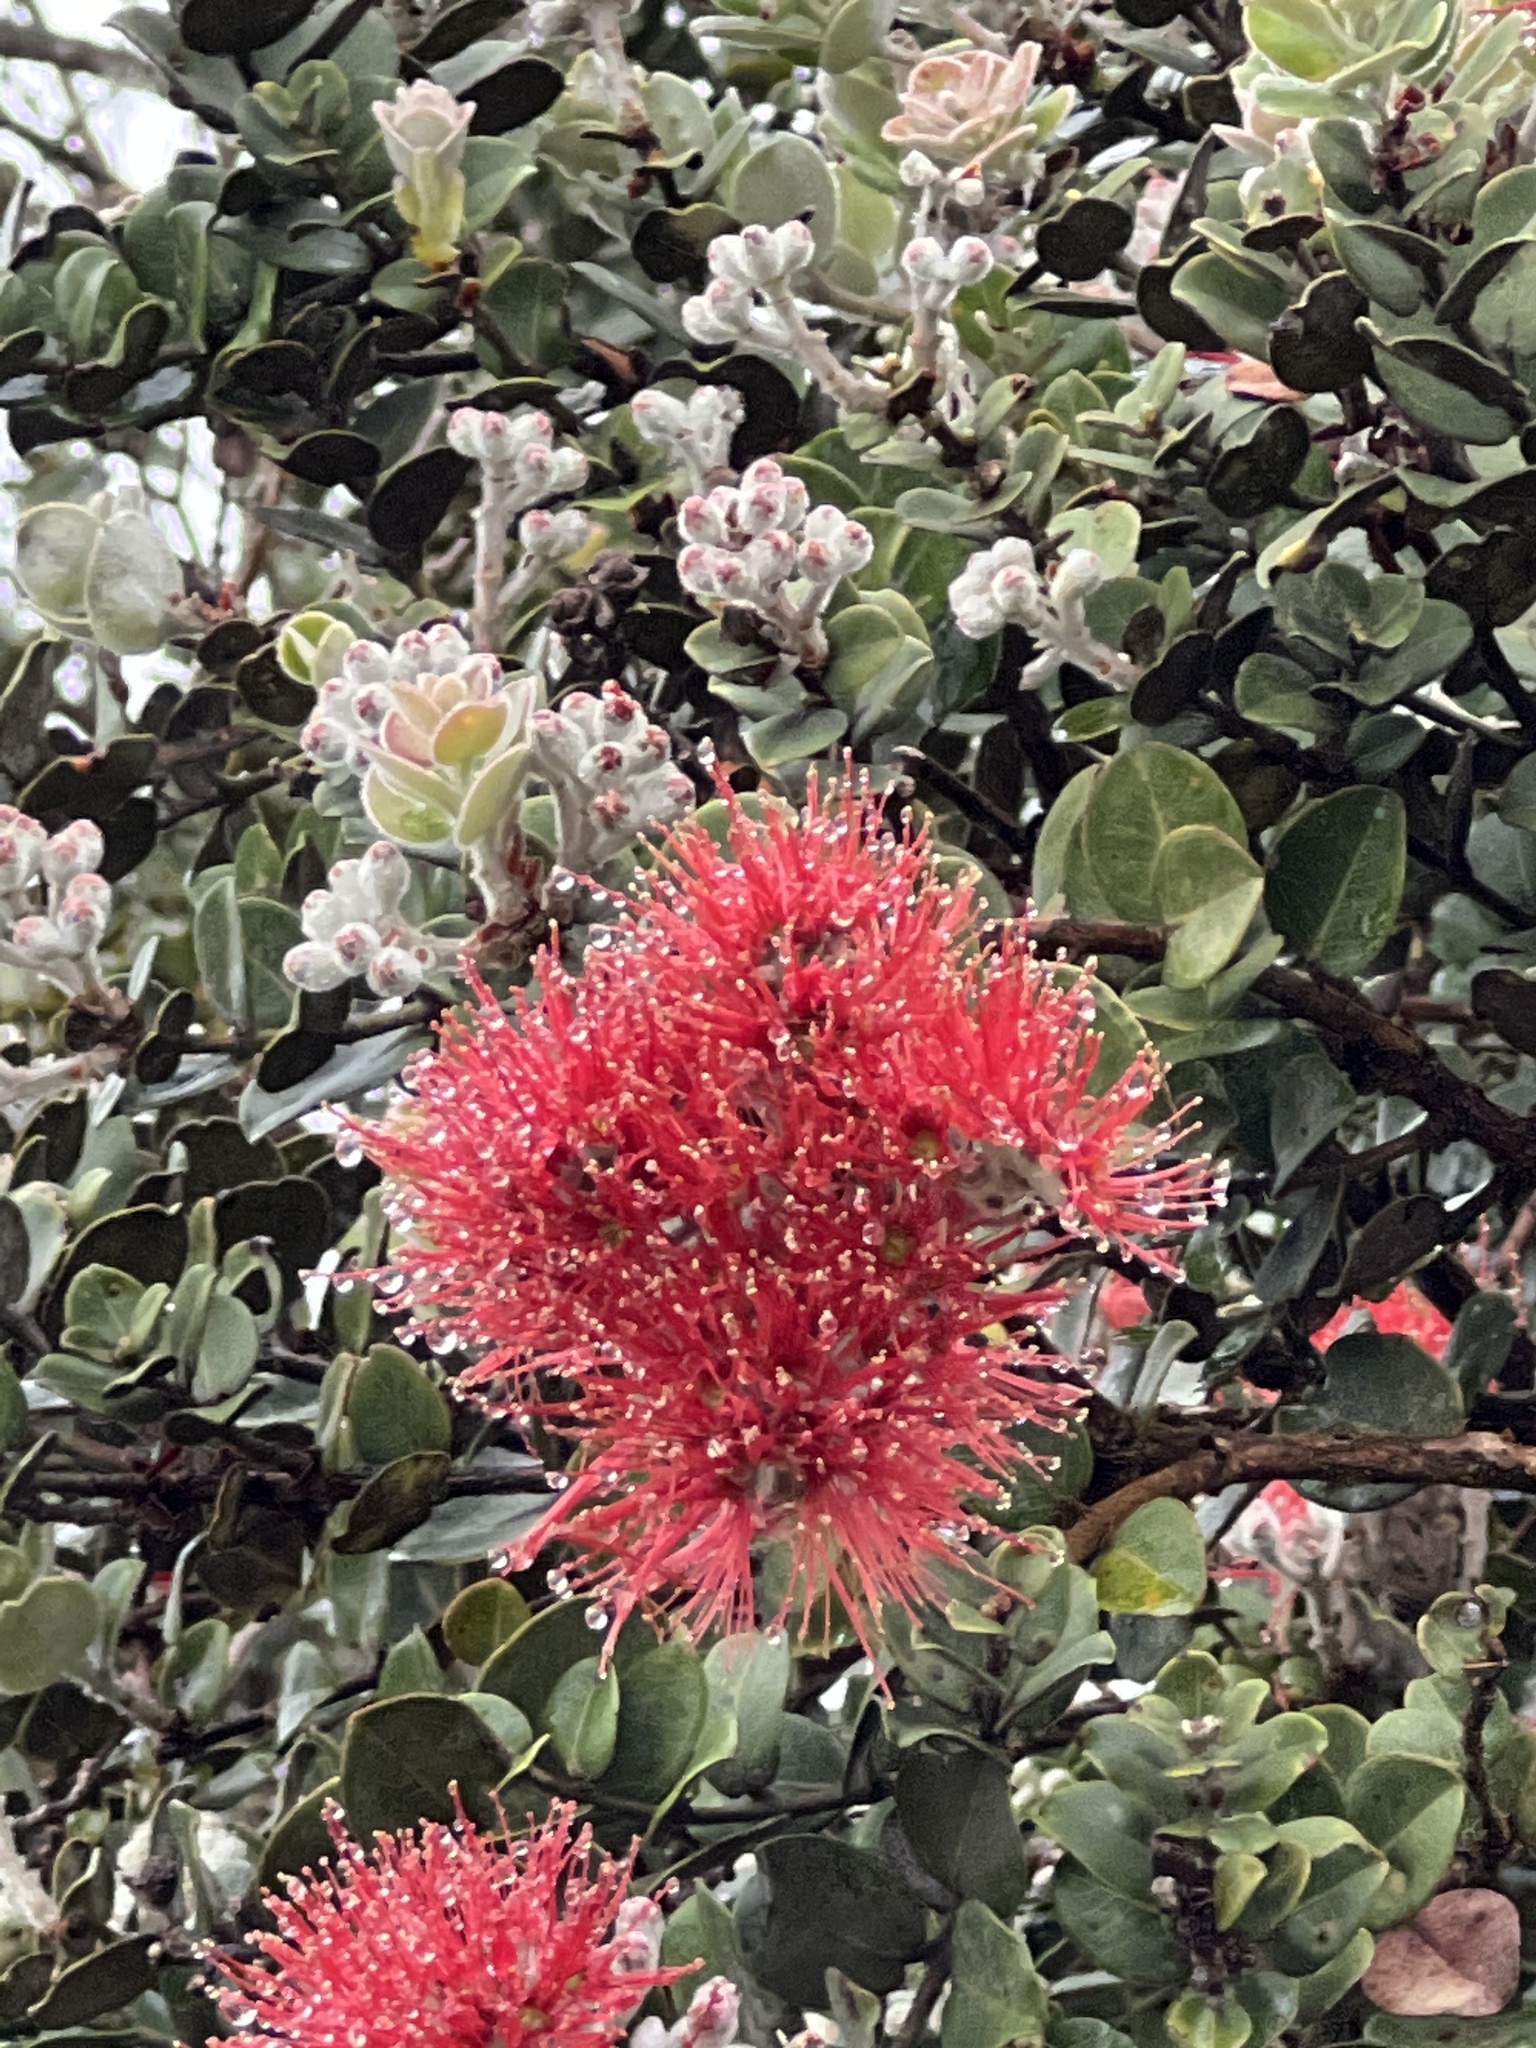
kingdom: Plantae
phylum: Tracheophyta
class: Magnoliopsida
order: Myrtales
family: Myrtaceae
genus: Metrosideros
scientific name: Metrosideros polymorpha
